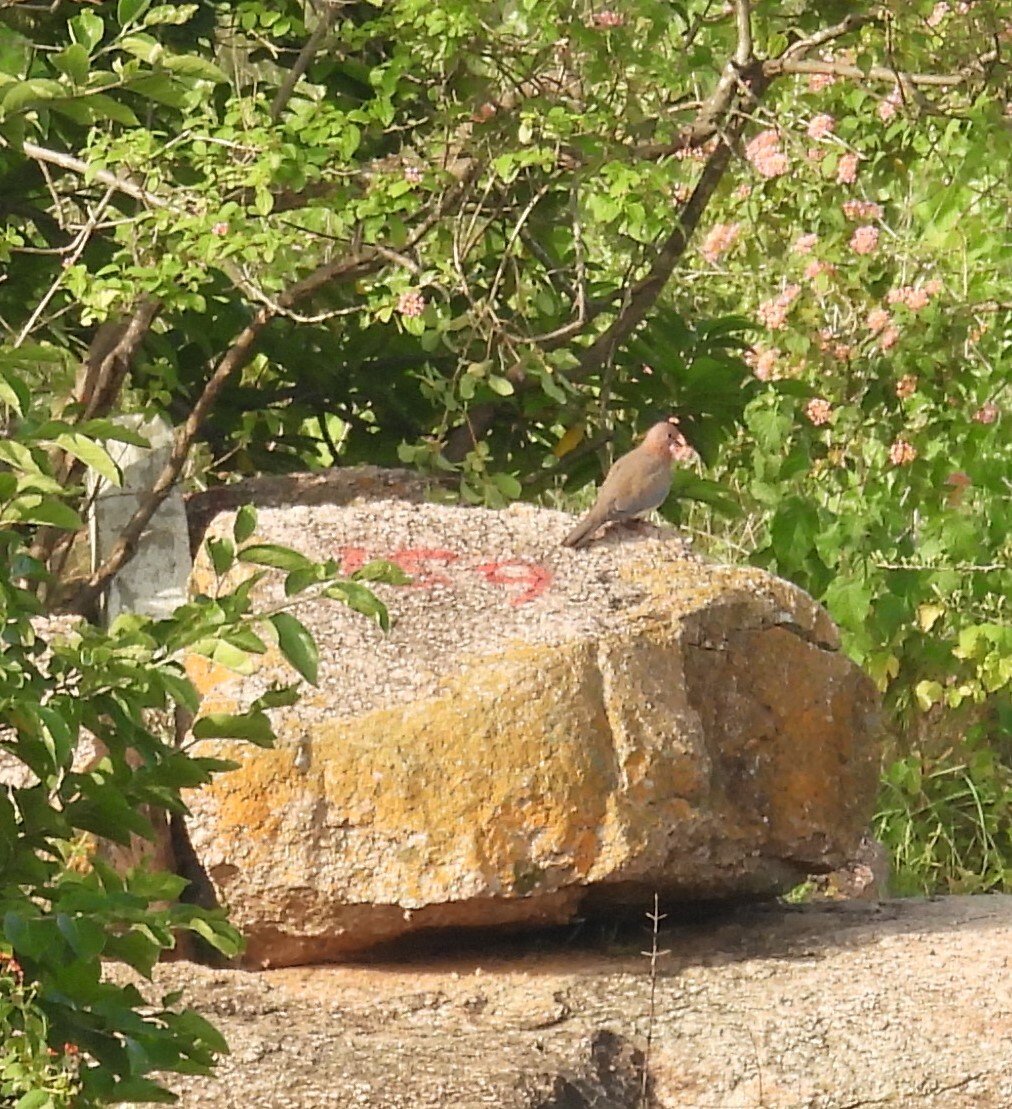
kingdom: Animalia
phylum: Chordata
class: Aves
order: Columbiformes
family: Columbidae
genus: Spilopelia
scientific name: Spilopelia senegalensis
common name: Laughing dove
